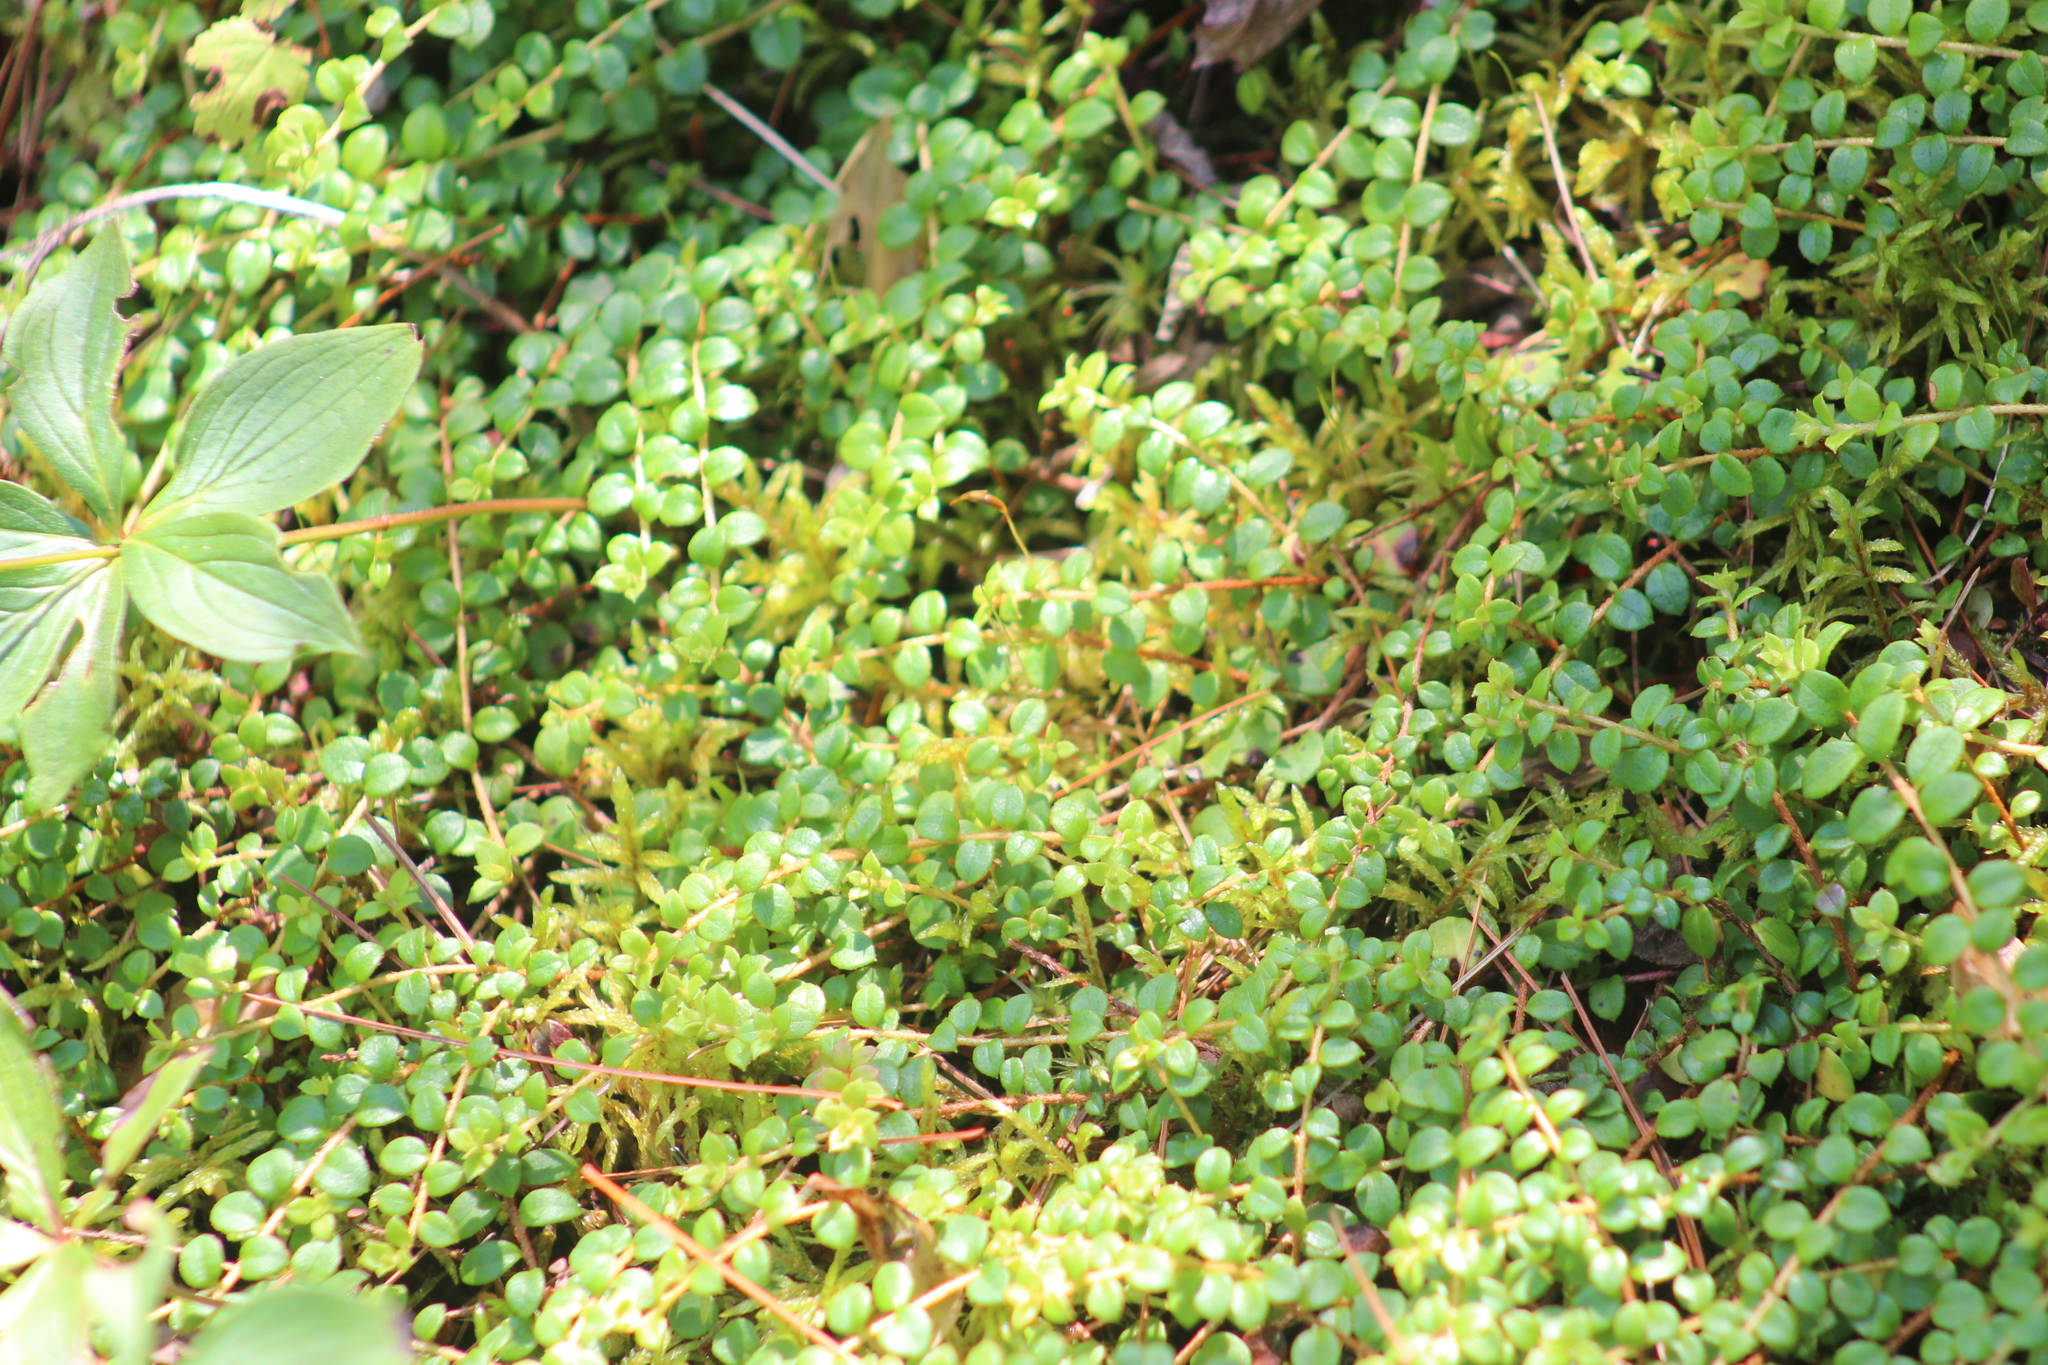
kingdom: Plantae
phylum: Tracheophyta
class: Magnoliopsida
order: Ericales
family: Ericaceae
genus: Gaultheria
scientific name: Gaultheria hispidula
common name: Cancer wintergreen
